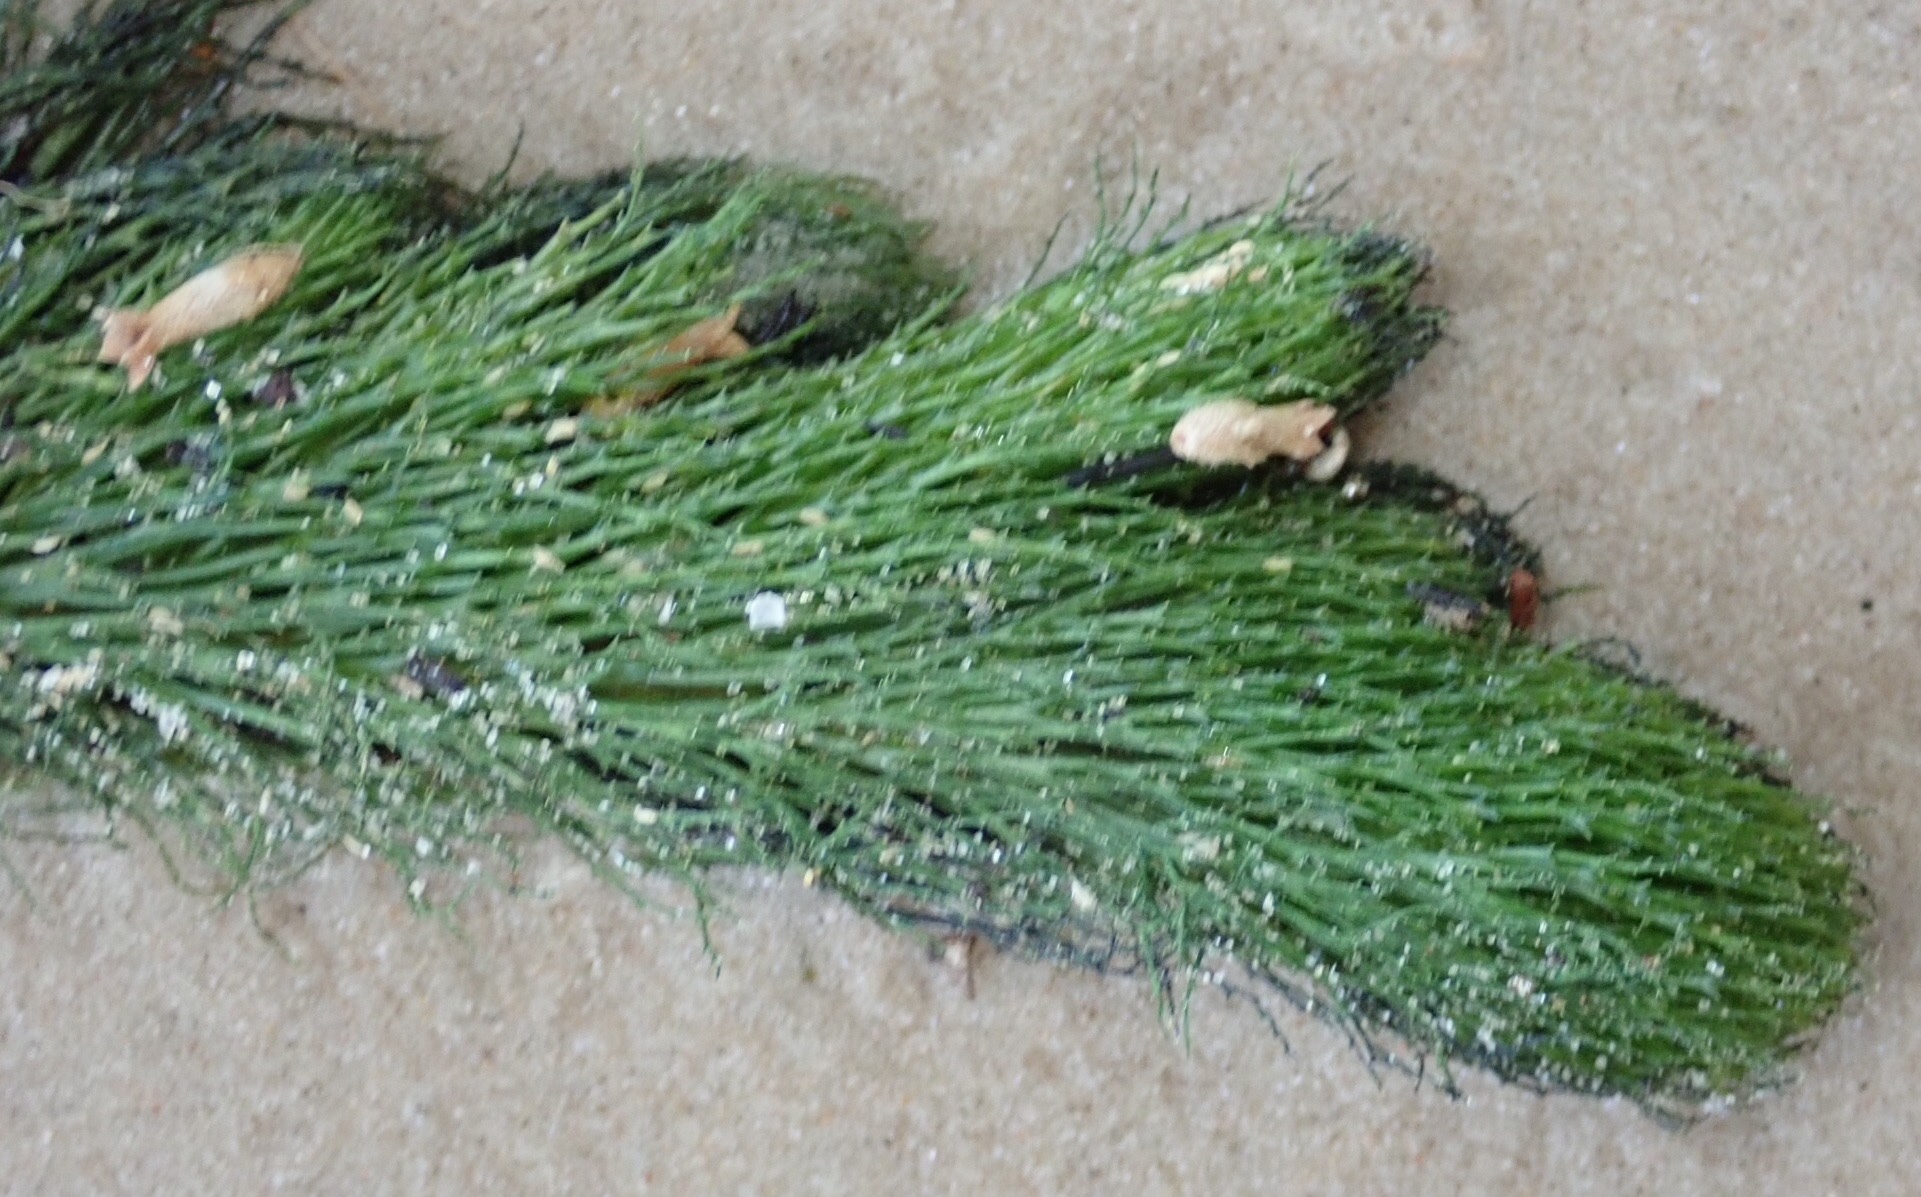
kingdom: Plantae
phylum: Tracheophyta
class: Magnoliopsida
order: Ceratophyllales
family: Ceratophyllaceae
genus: Ceratophyllum
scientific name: Ceratophyllum demersum
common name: Rigid hornwort
